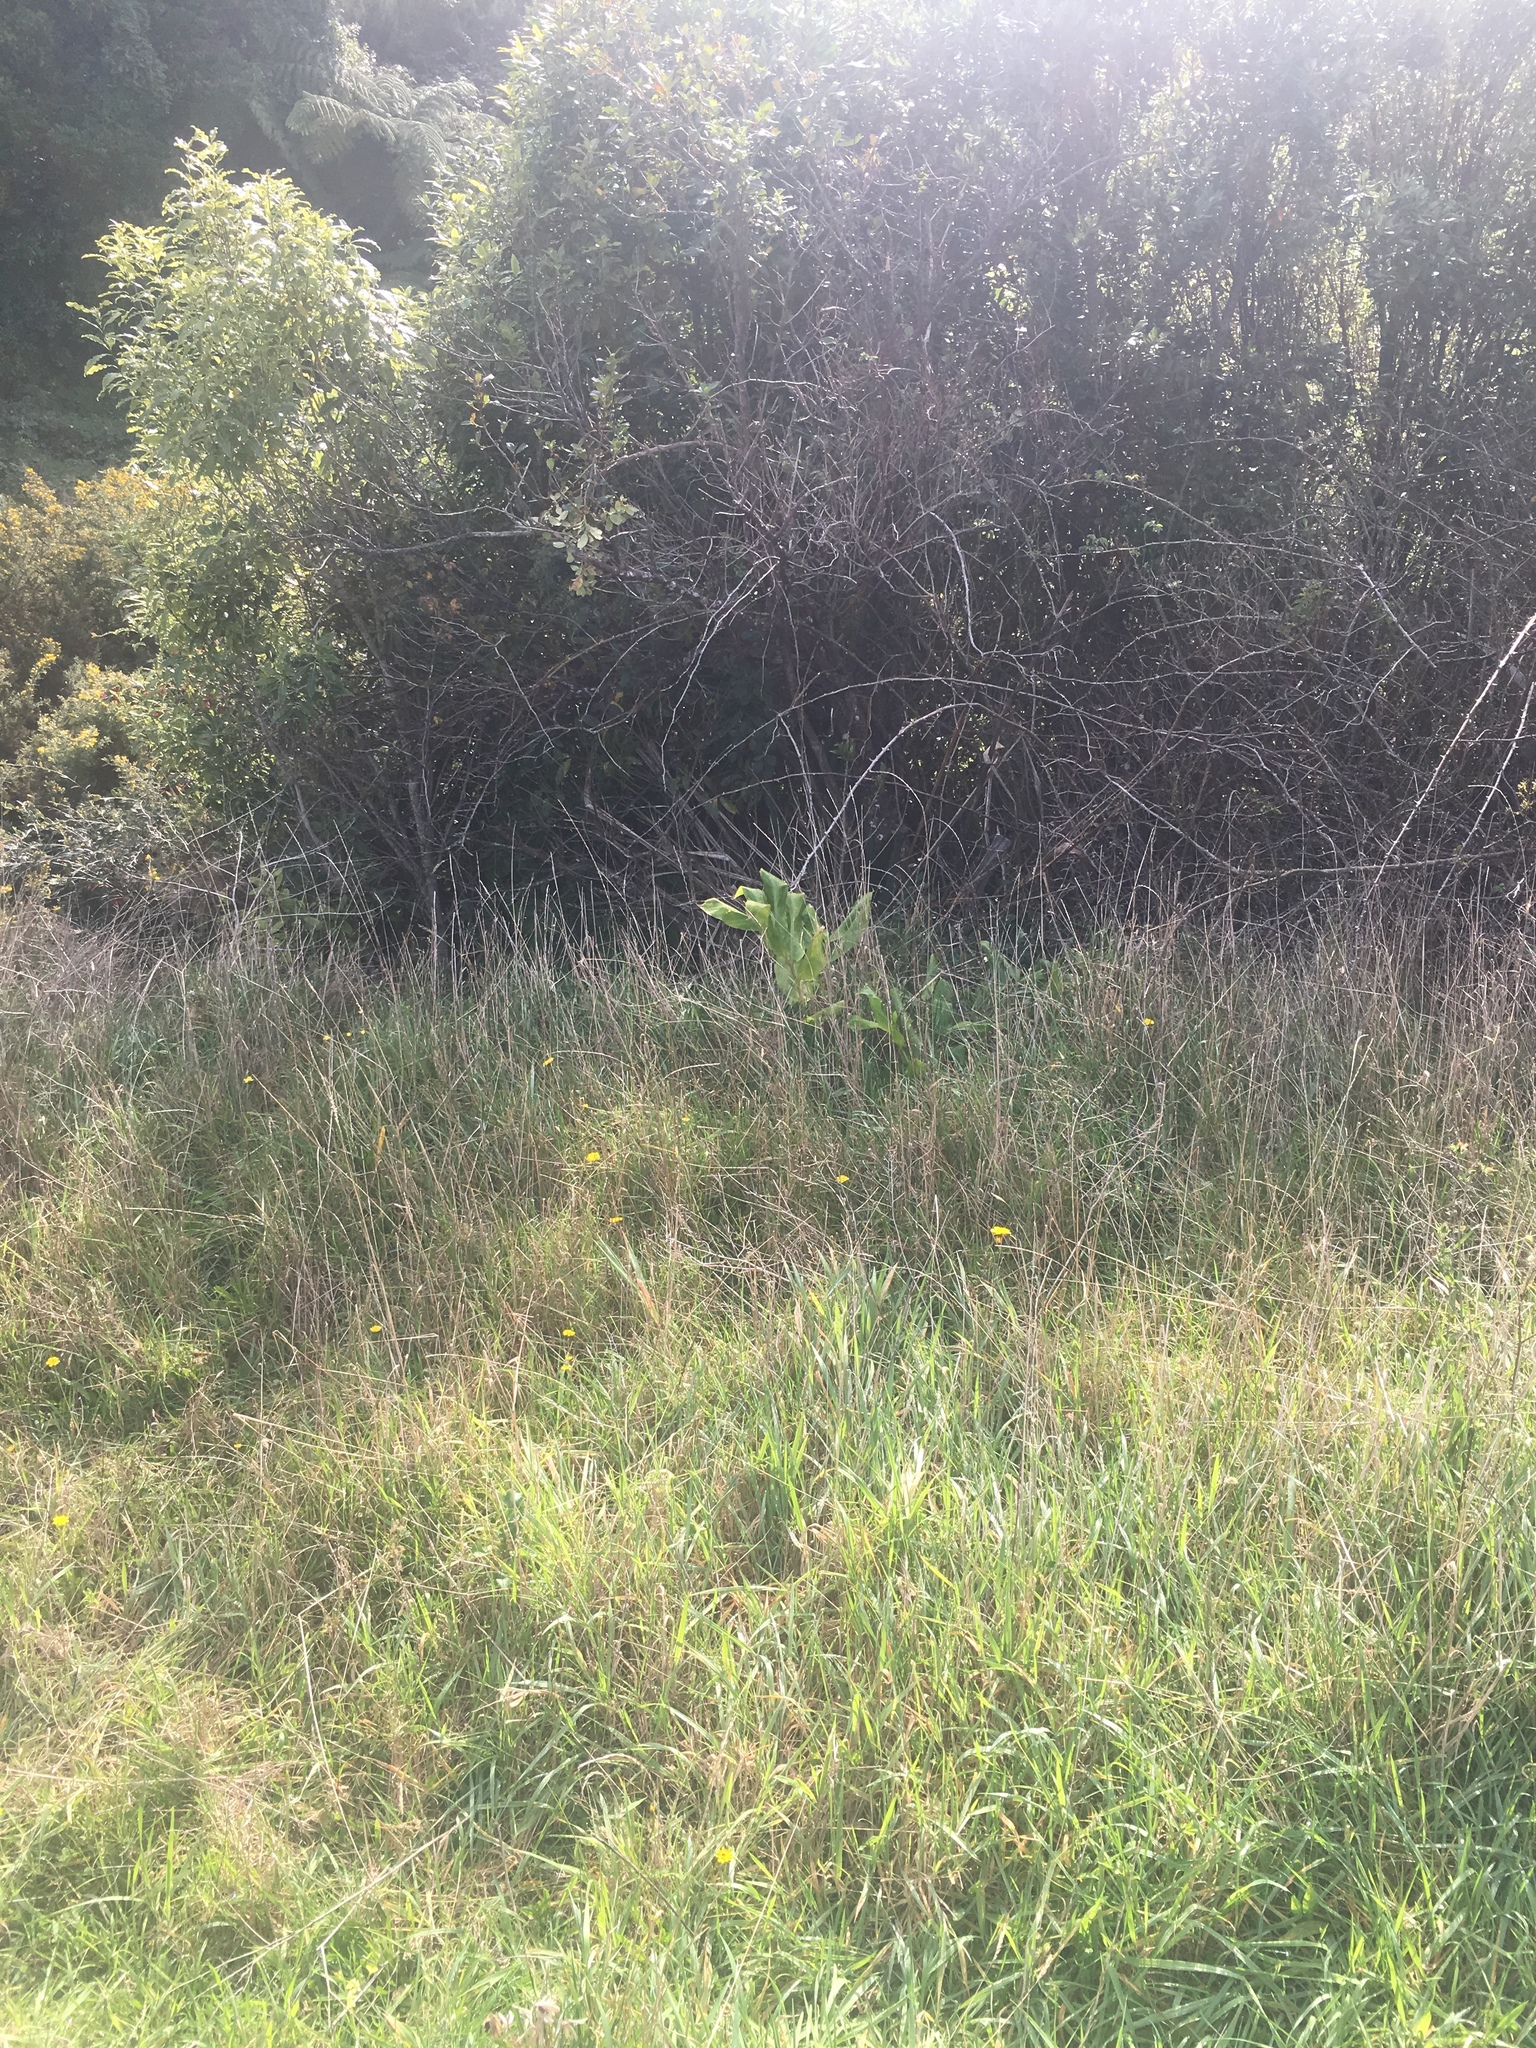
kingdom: Plantae
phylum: Tracheophyta
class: Liliopsida
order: Zingiberales
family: Zingiberaceae
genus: Hedychium
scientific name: Hedychium gardnerianum
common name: Himalayan ginger
